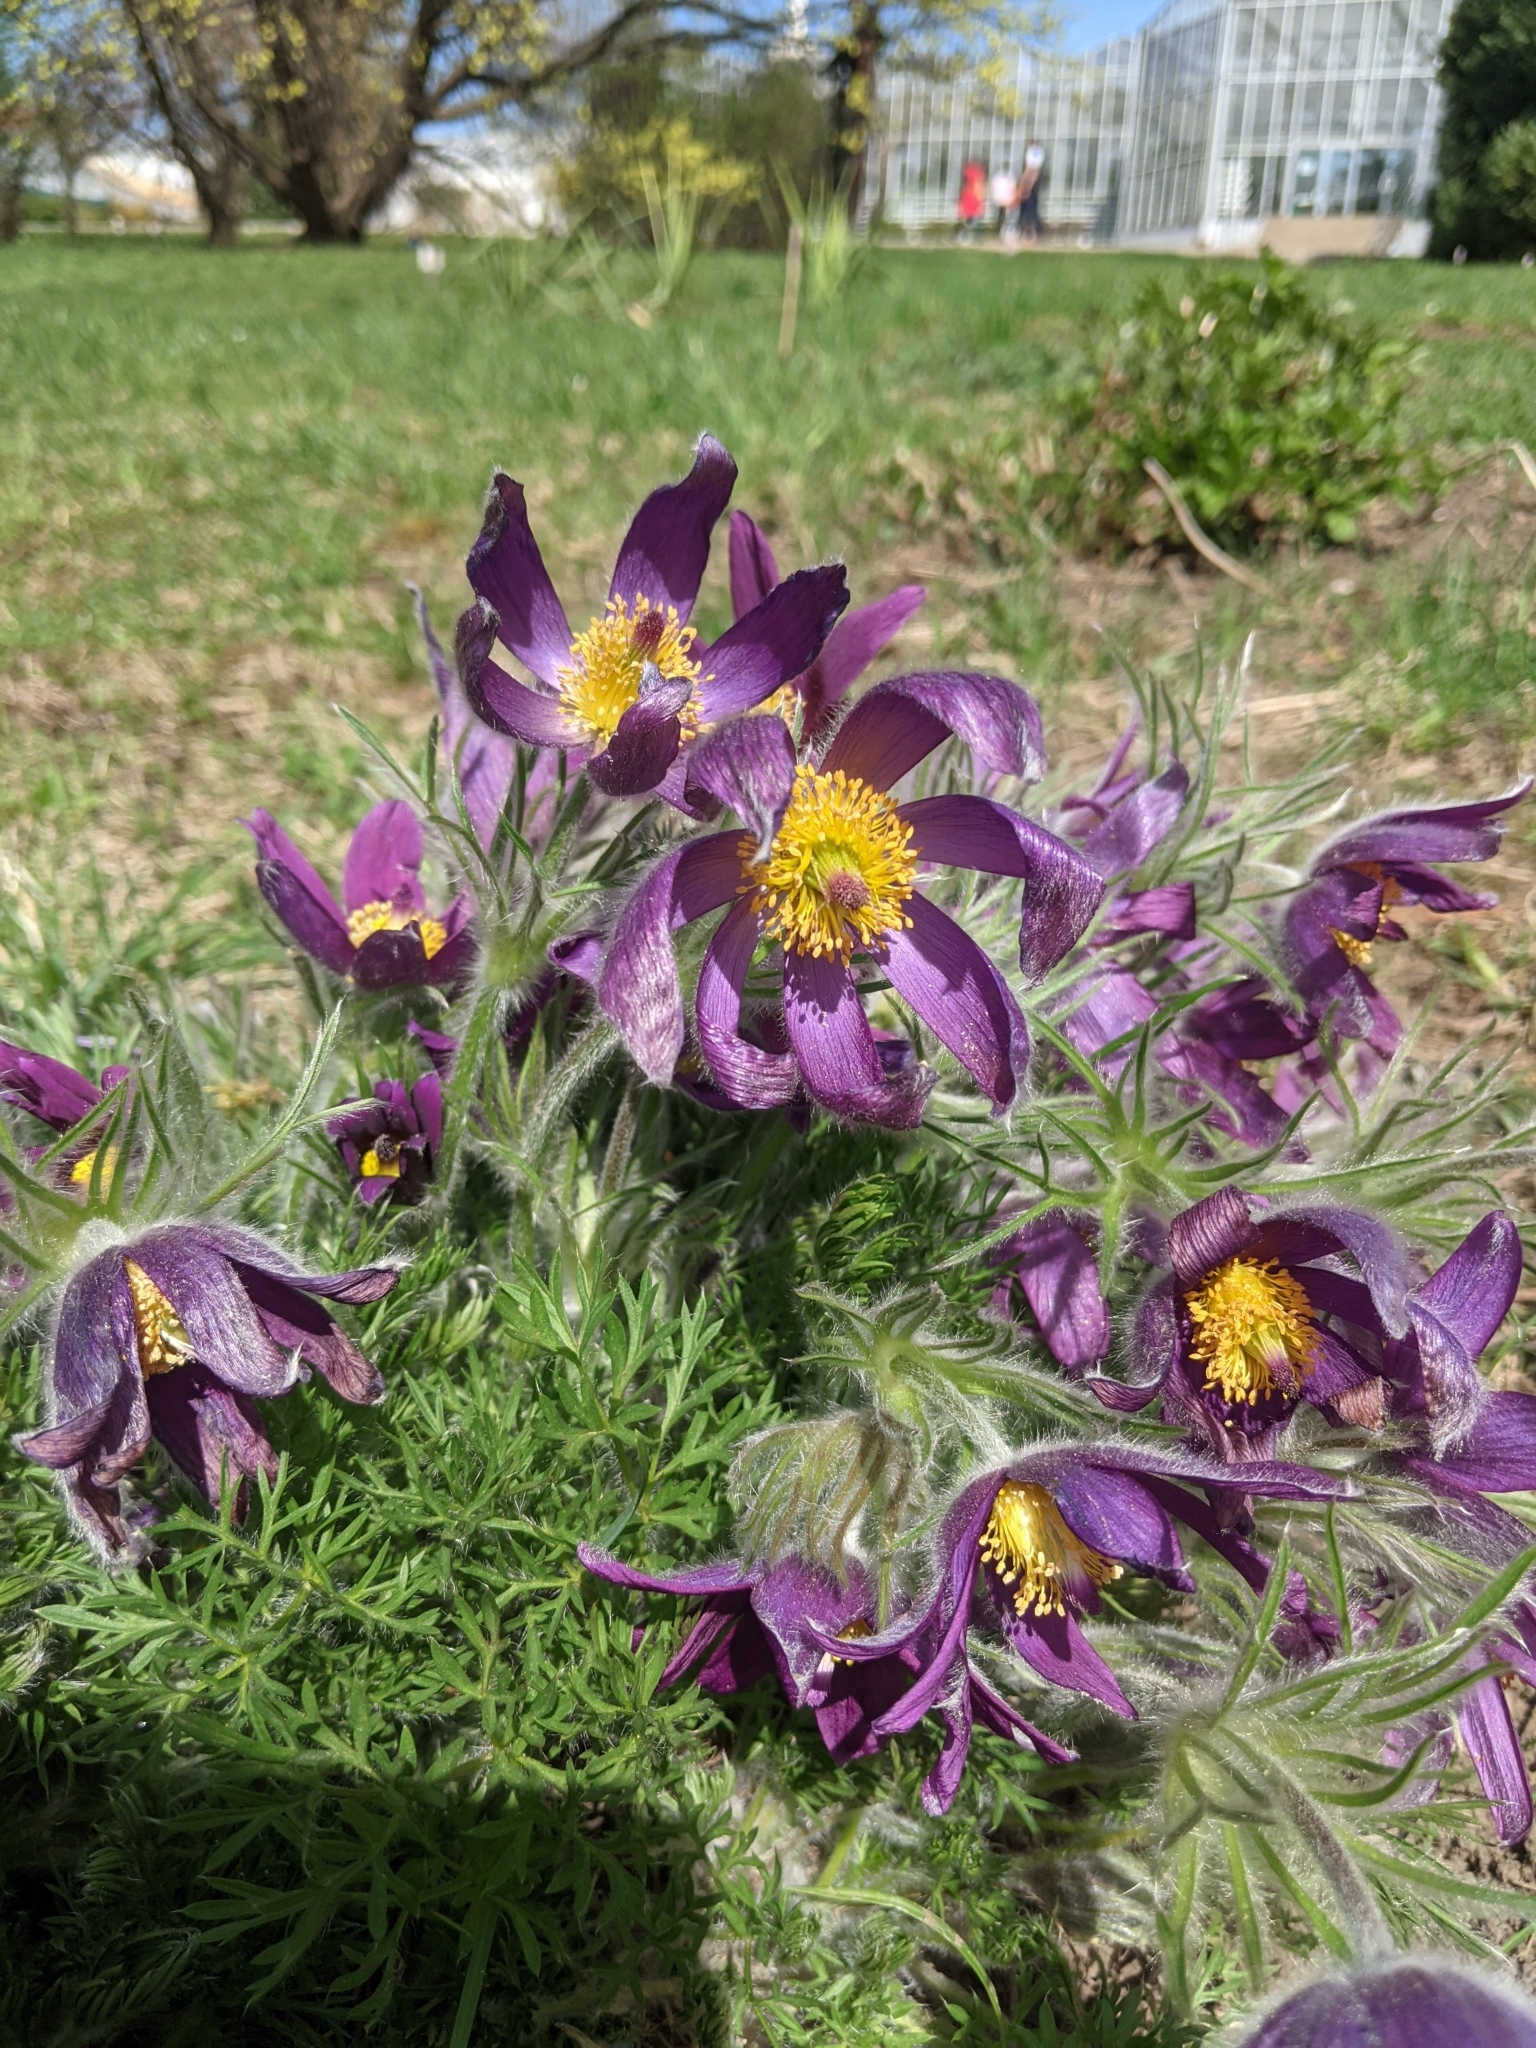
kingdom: Plantae
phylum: Tracheophyta
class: Magnoliopsida
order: Ranunculales
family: Ranunculaceae
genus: Pulsatilla
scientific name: Pulsatilla grandis
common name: Greater pasque flower
